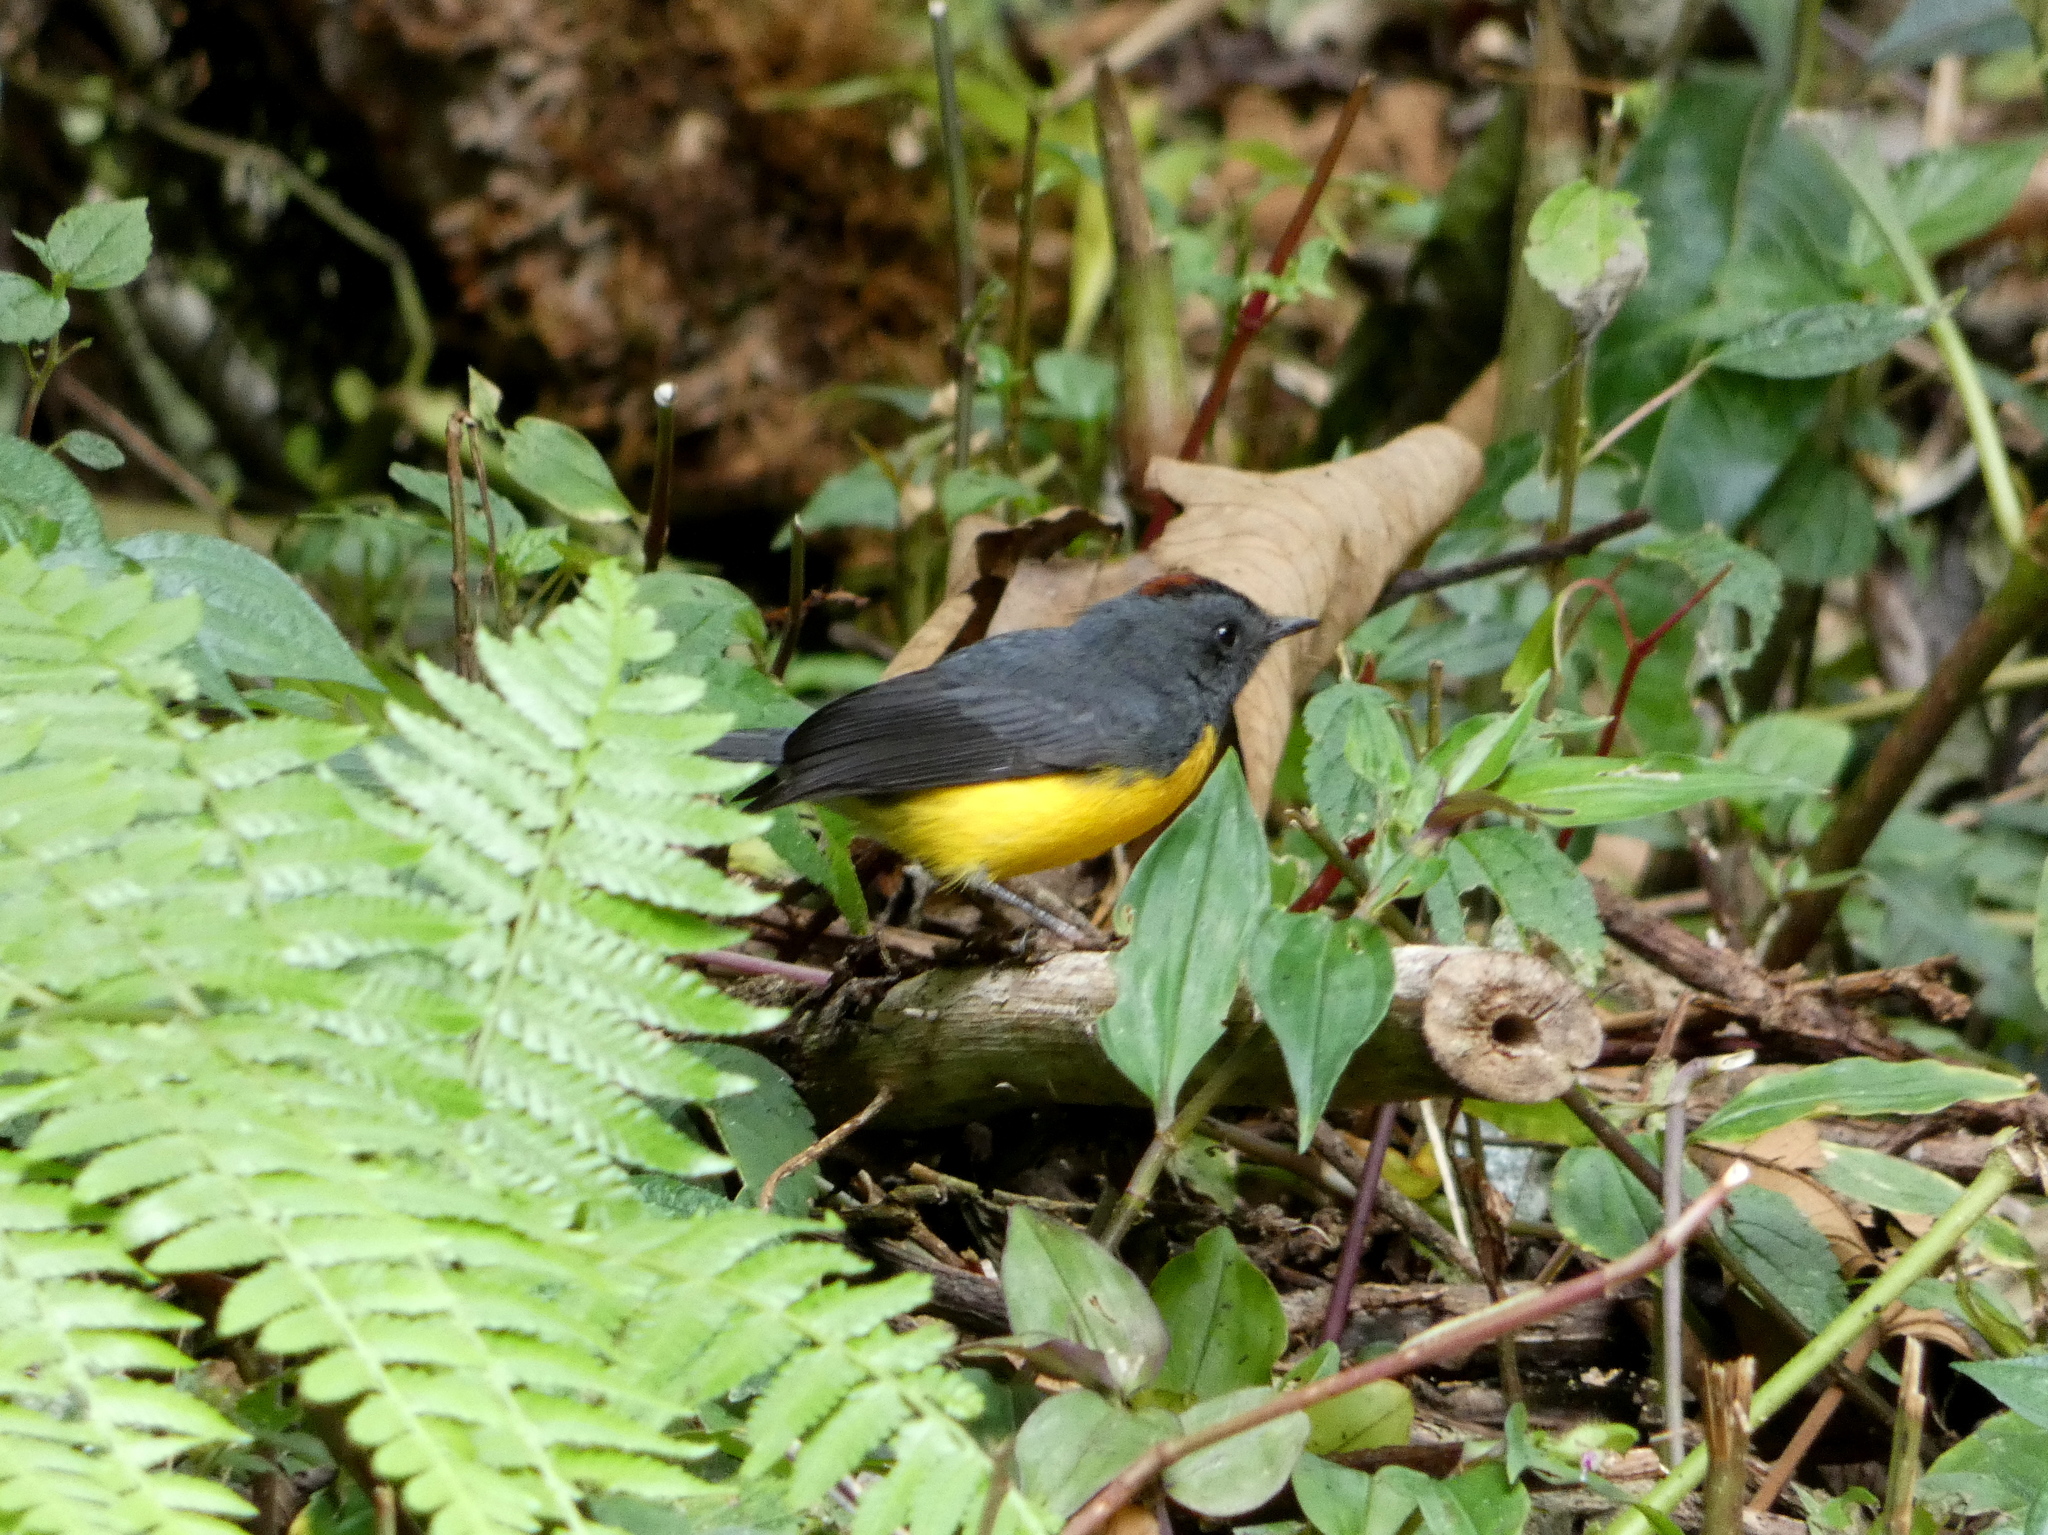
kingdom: Animalia
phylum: Chordata
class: Aves
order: Passeriformes
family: Parulidae
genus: Myioborus
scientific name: Myioborus miniatus
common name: Slate-throated redstart
